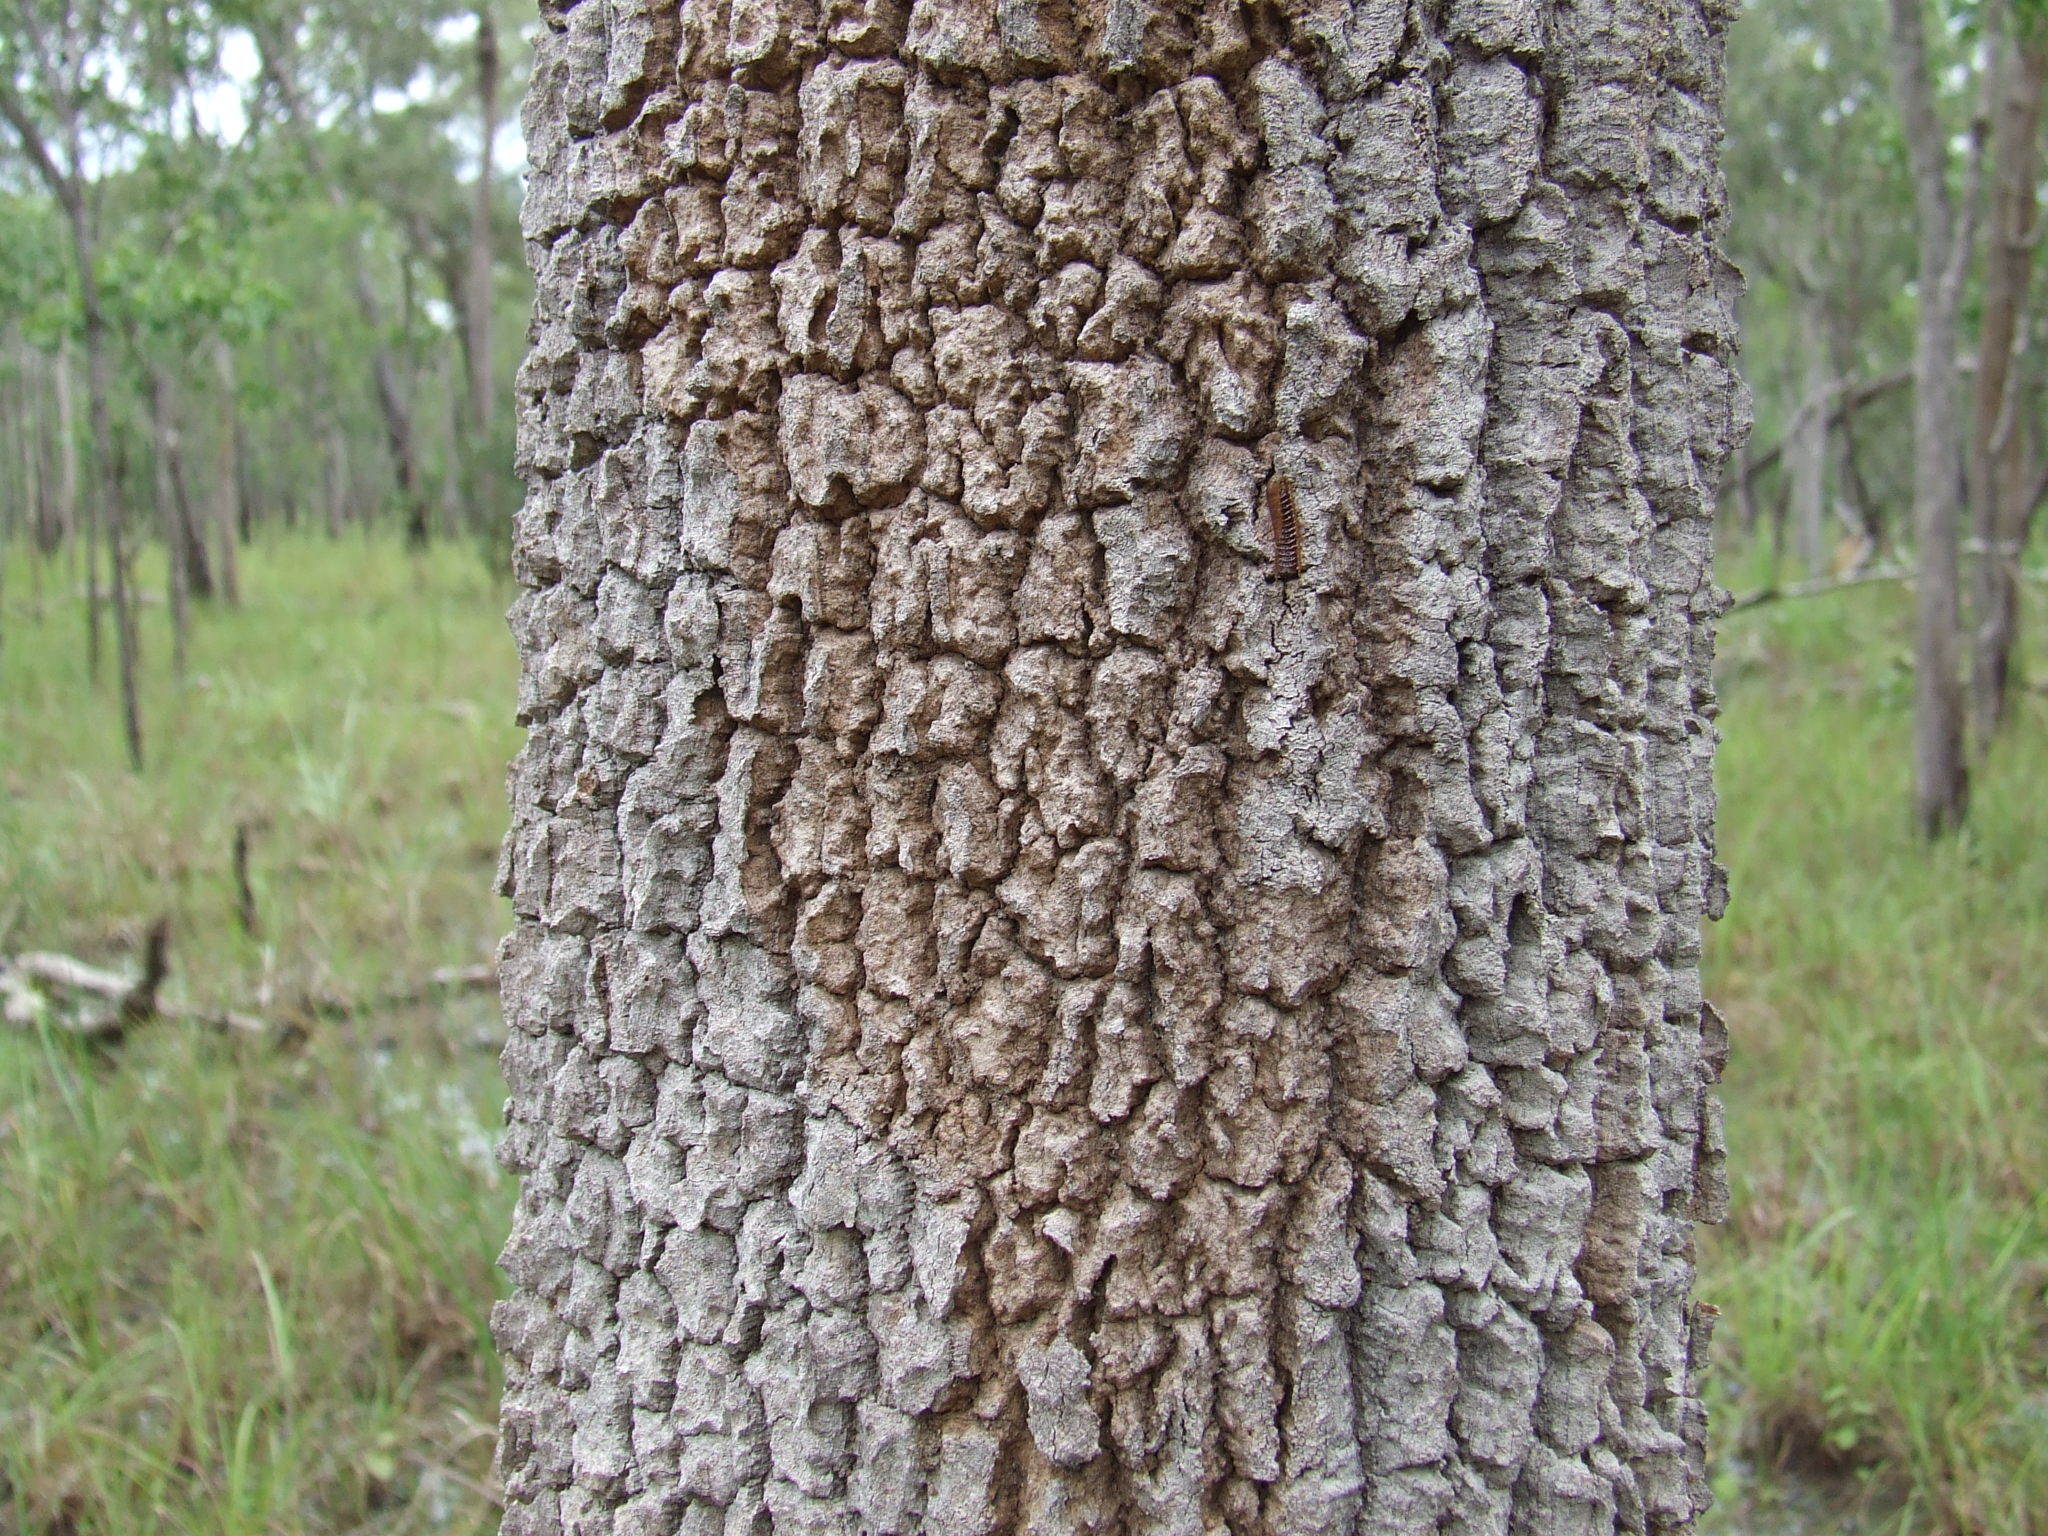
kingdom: Plantae
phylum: Tracheophyta
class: Magnoliopsida
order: Malpighiales
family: Chrysobalanaceae
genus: Parinari
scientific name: Parinari nonda
